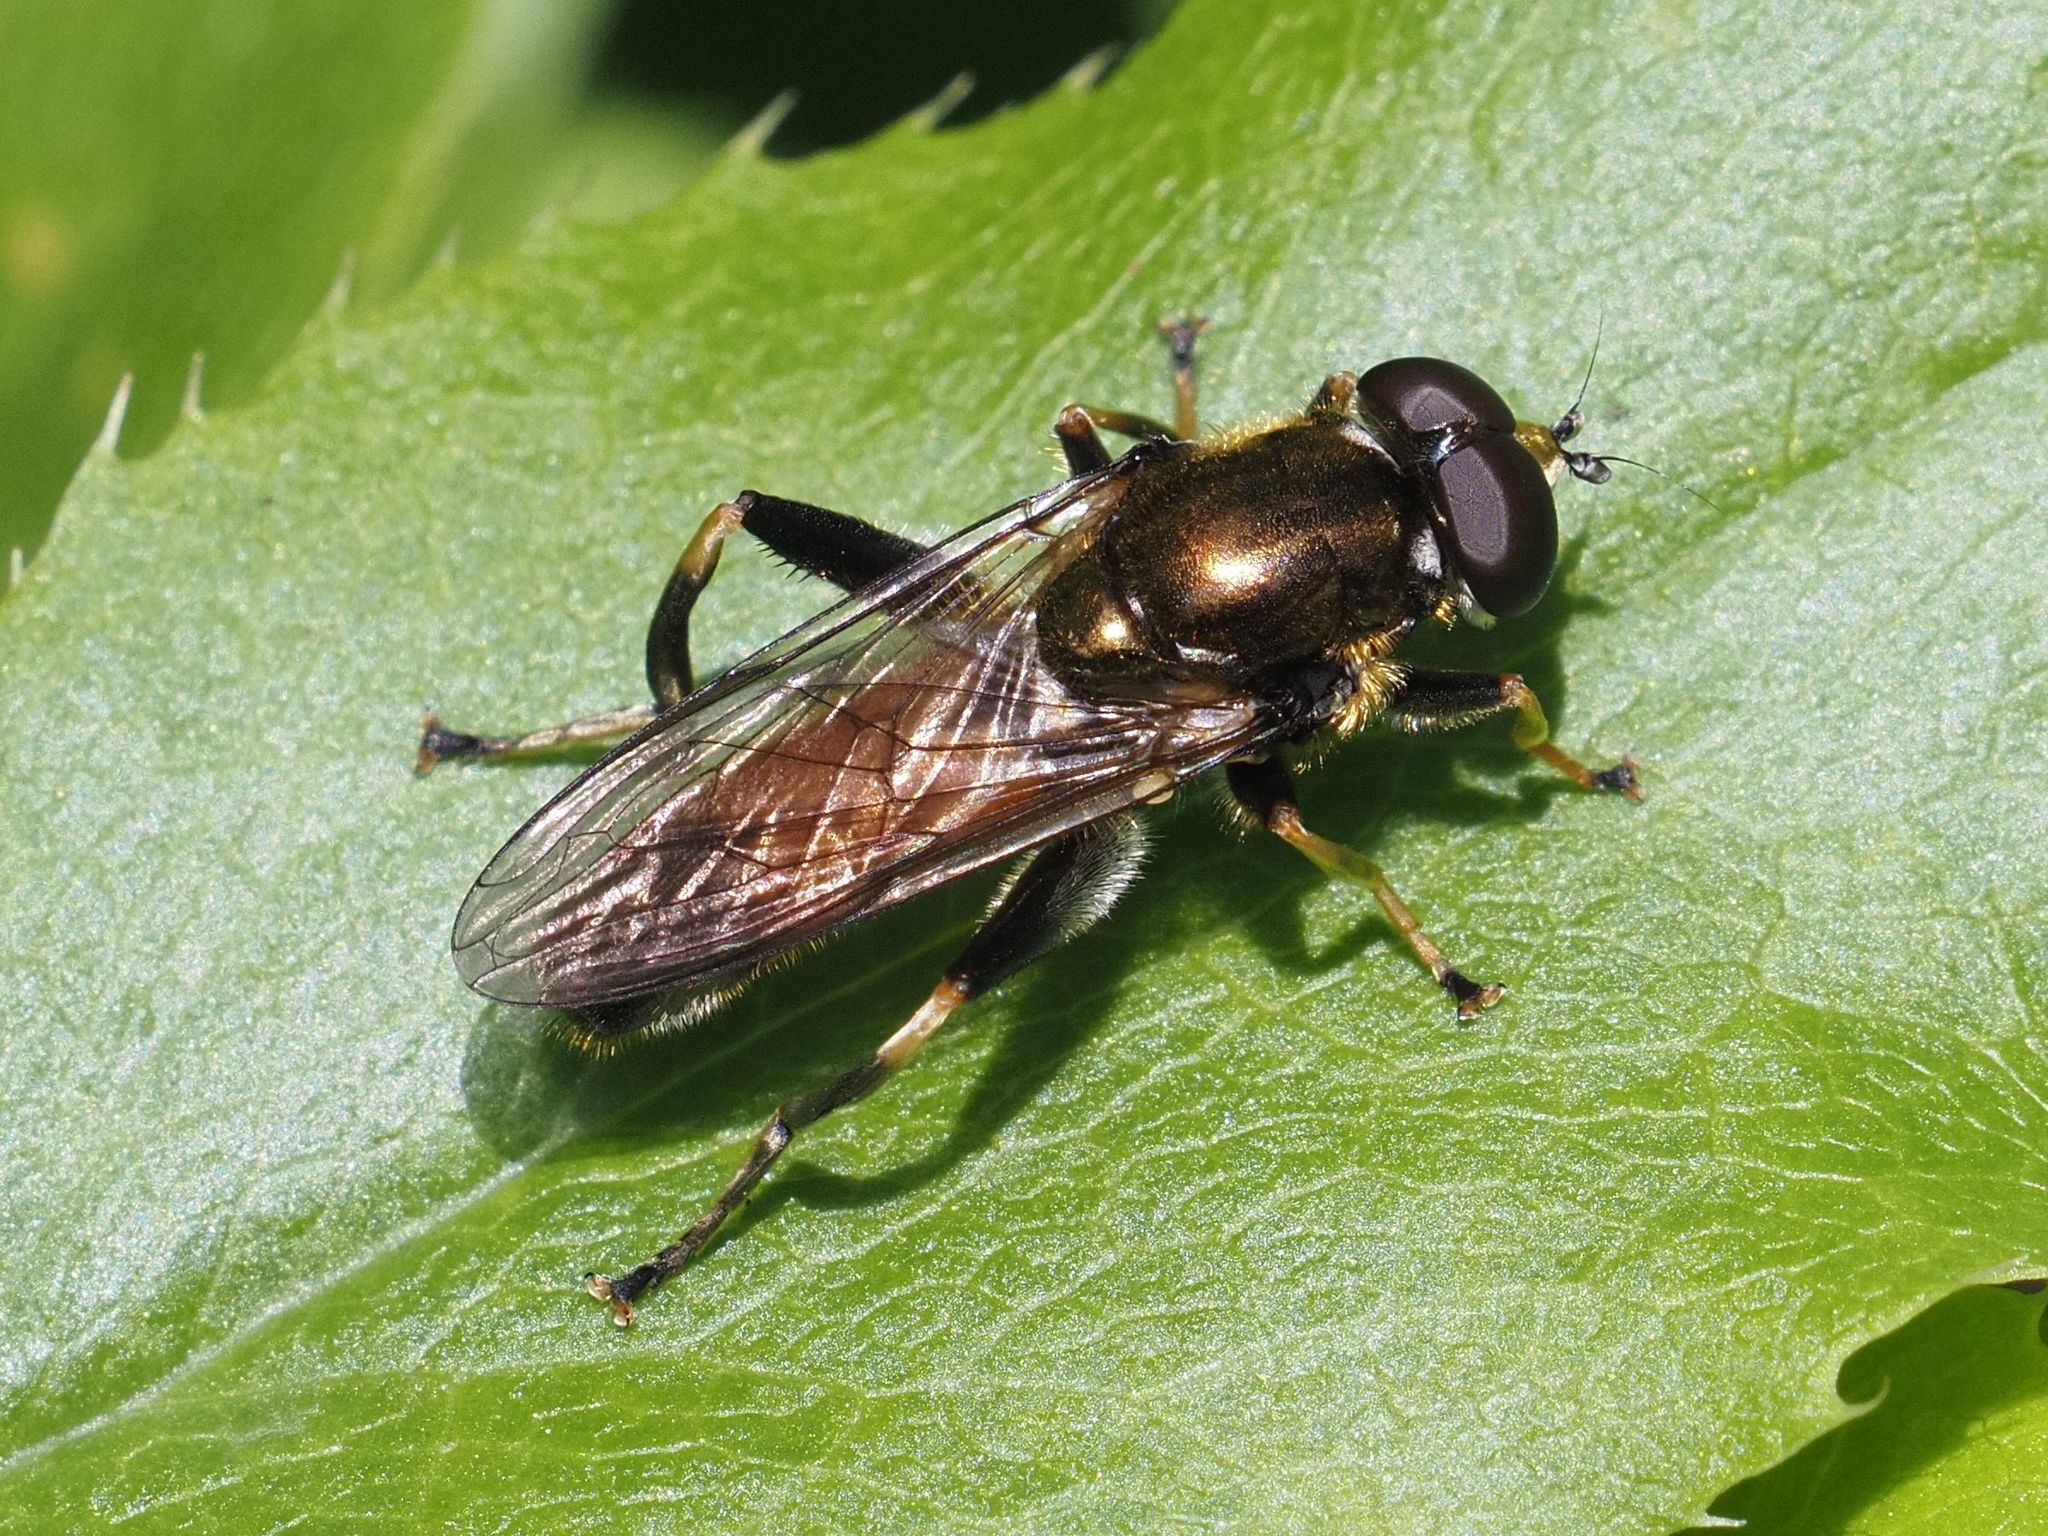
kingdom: Animalia
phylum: Arthropoda
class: Insecta
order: Diptera
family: Syrphidae
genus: Xylota
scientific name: Xylota segnis
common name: Brown-toed forest fly
